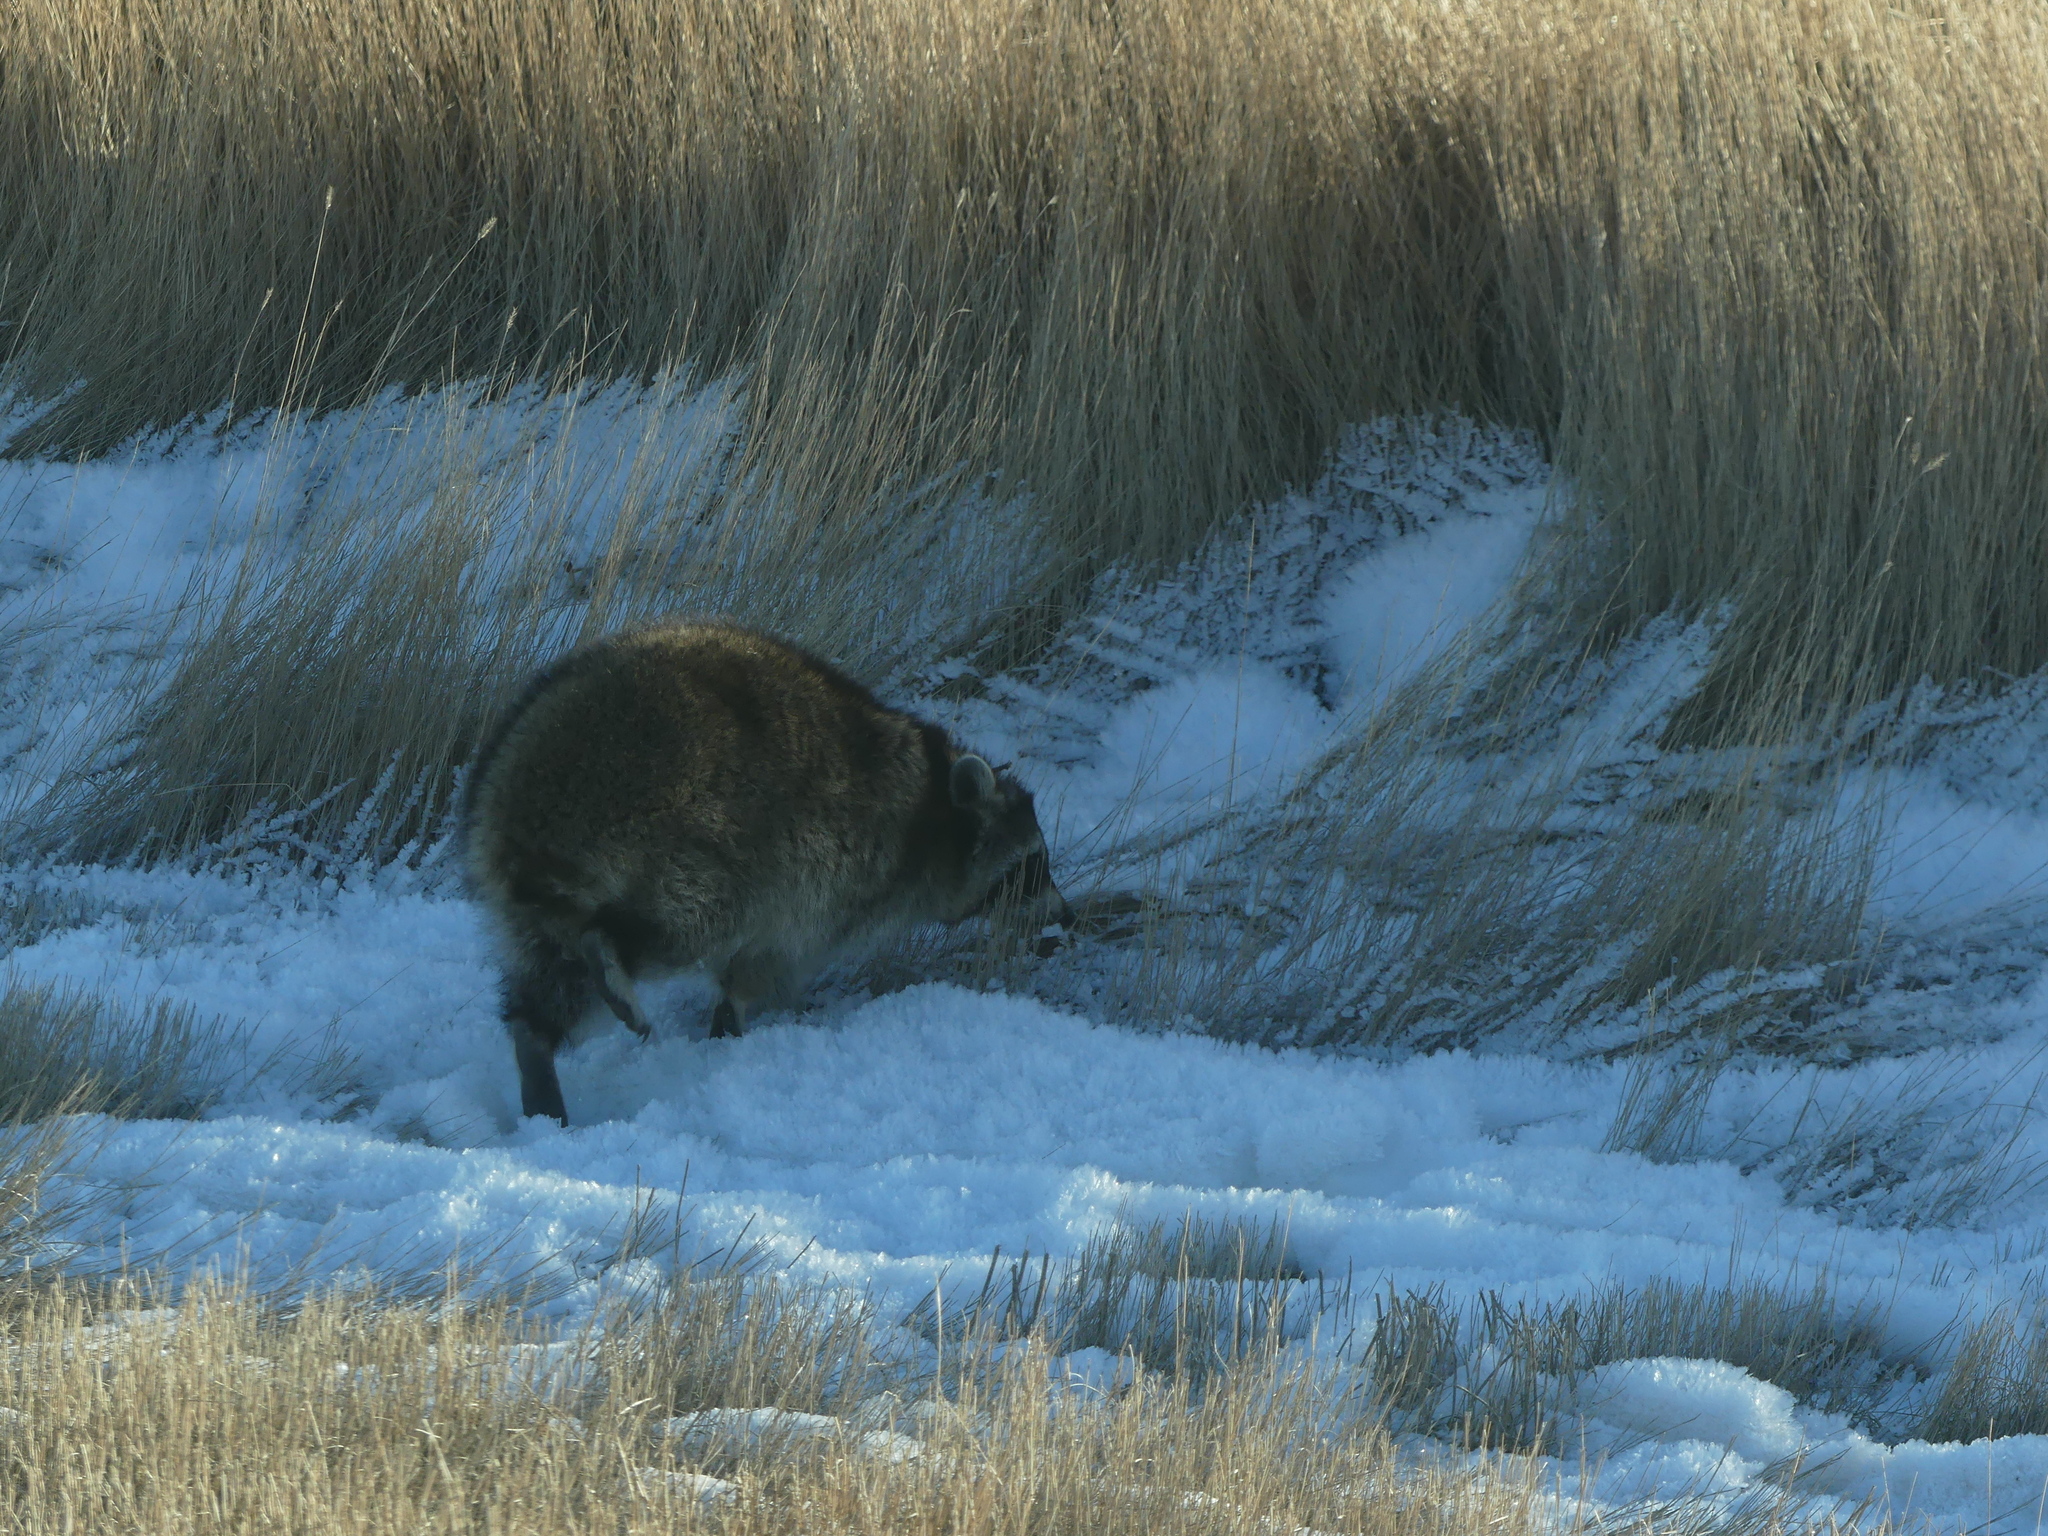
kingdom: Animalia
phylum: Chordata
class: Mammalia
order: Carnivora
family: Procyonidae
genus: Procyon
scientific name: Procyon lotor
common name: Raccoon
